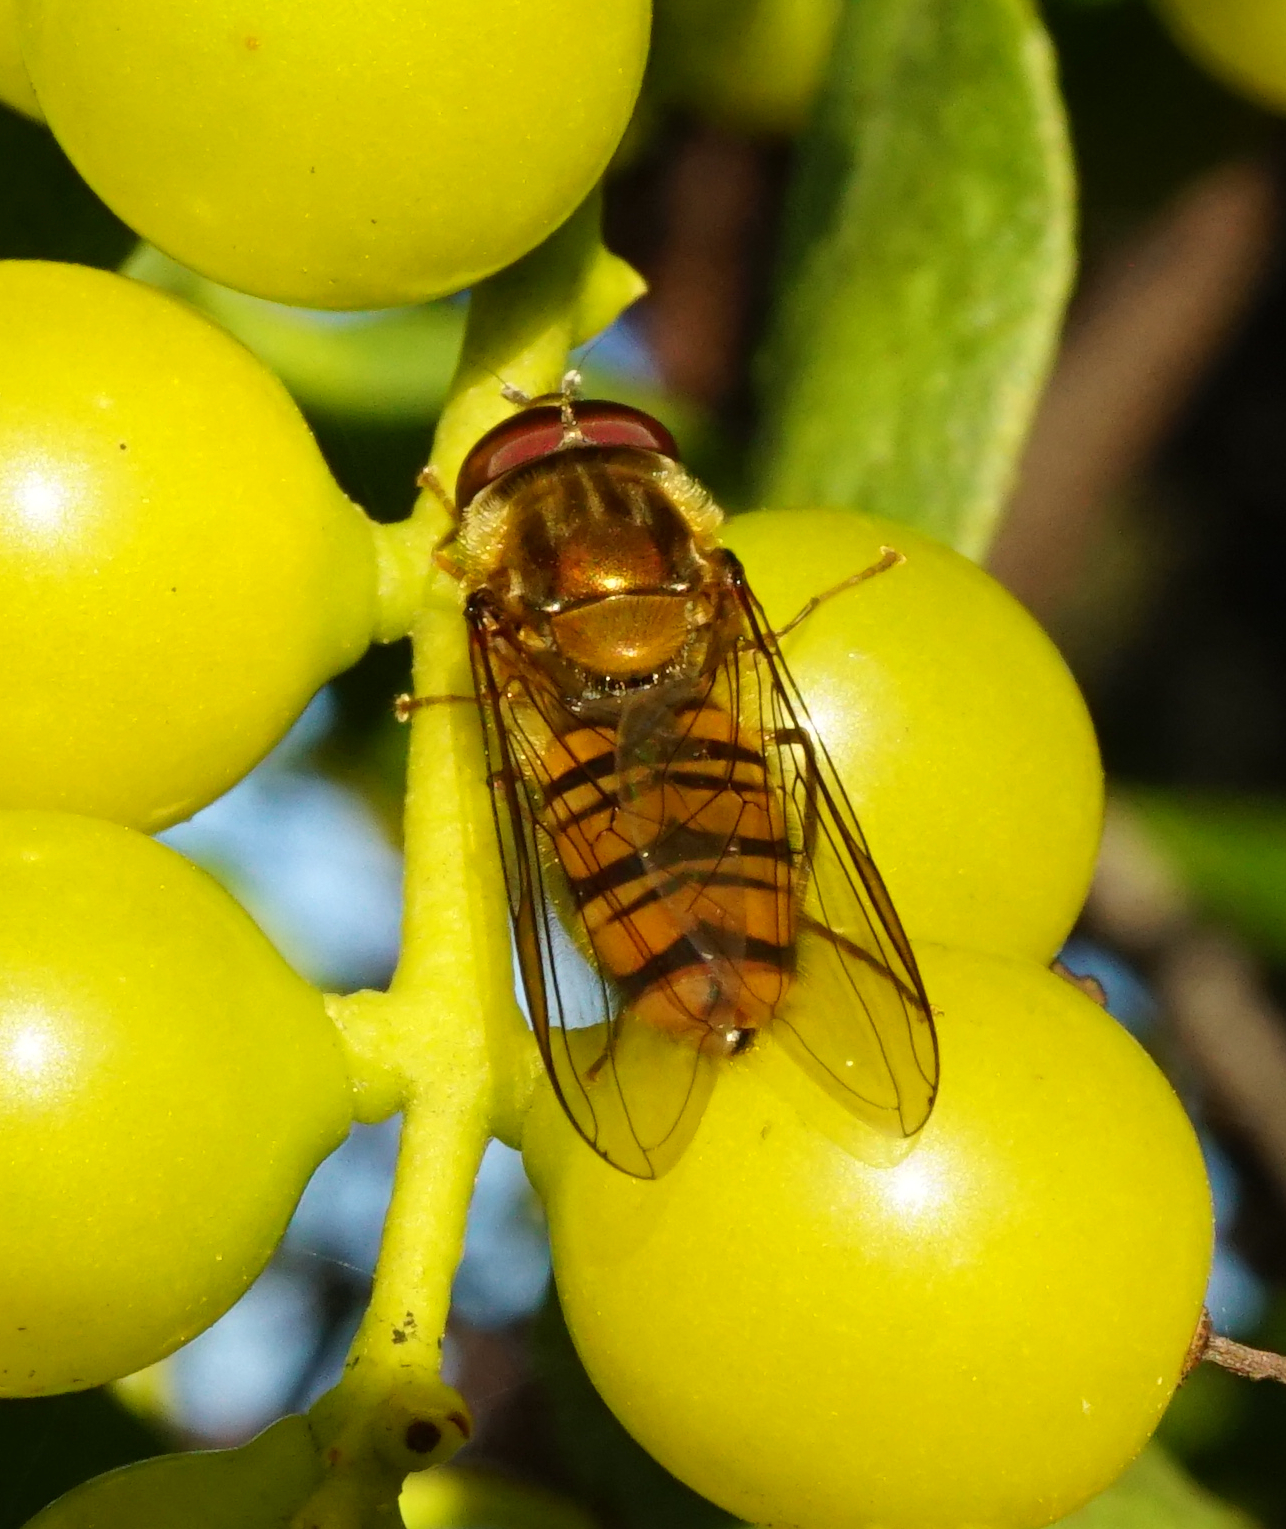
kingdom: Animalia
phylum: Arthropoda
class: Insecta
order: Diptera
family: Syrphidae
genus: Episyrphus
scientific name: Episyrphus balteatus
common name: Marmalade hoverfly
